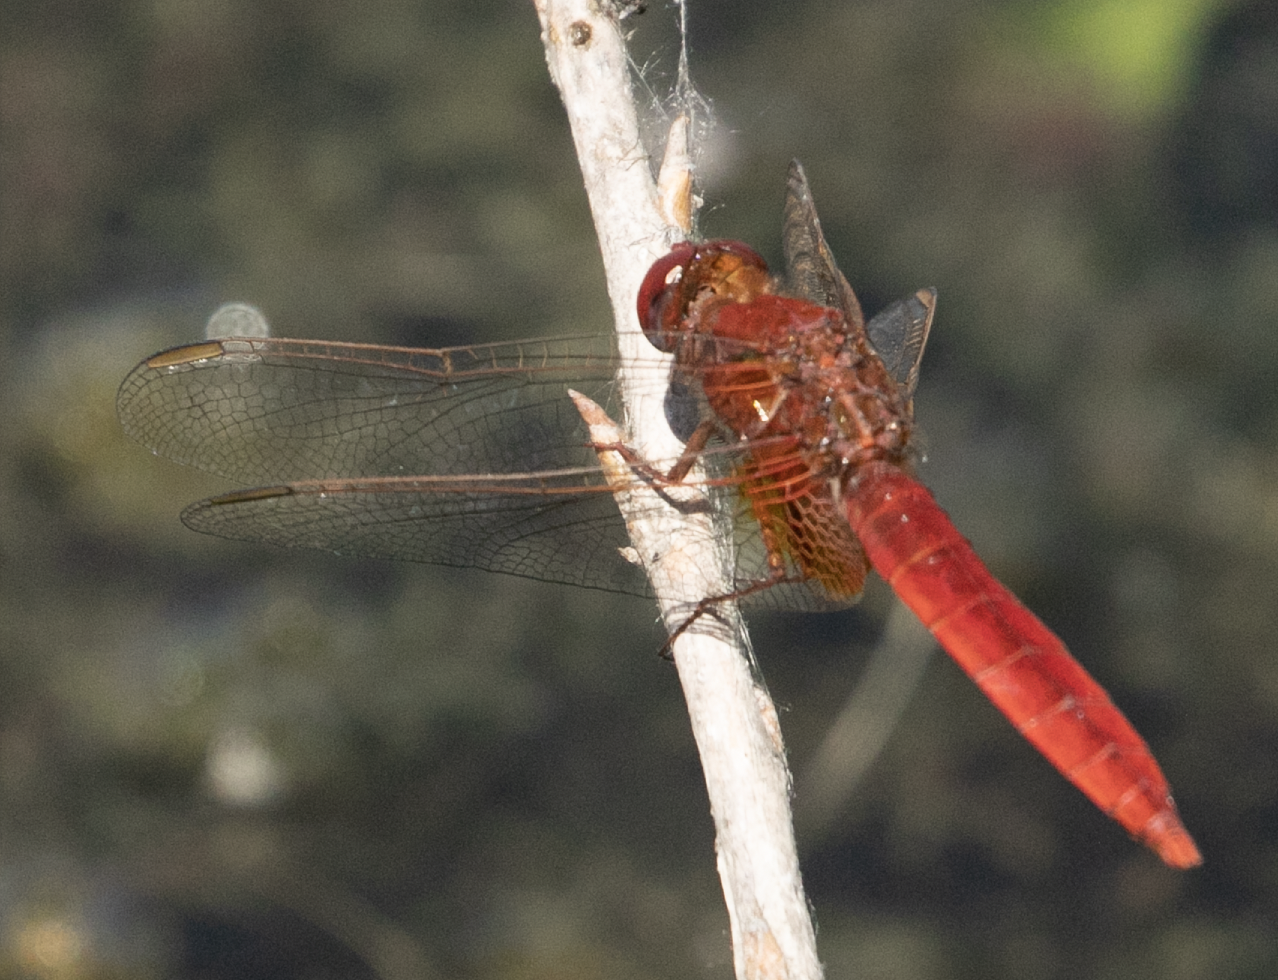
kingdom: Animalia
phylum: Arthropoda
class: Insecta
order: Odonata
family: Libellulidae
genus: Crocothemis
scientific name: Crocothemis erythraea
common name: Scarlet dragonfly
